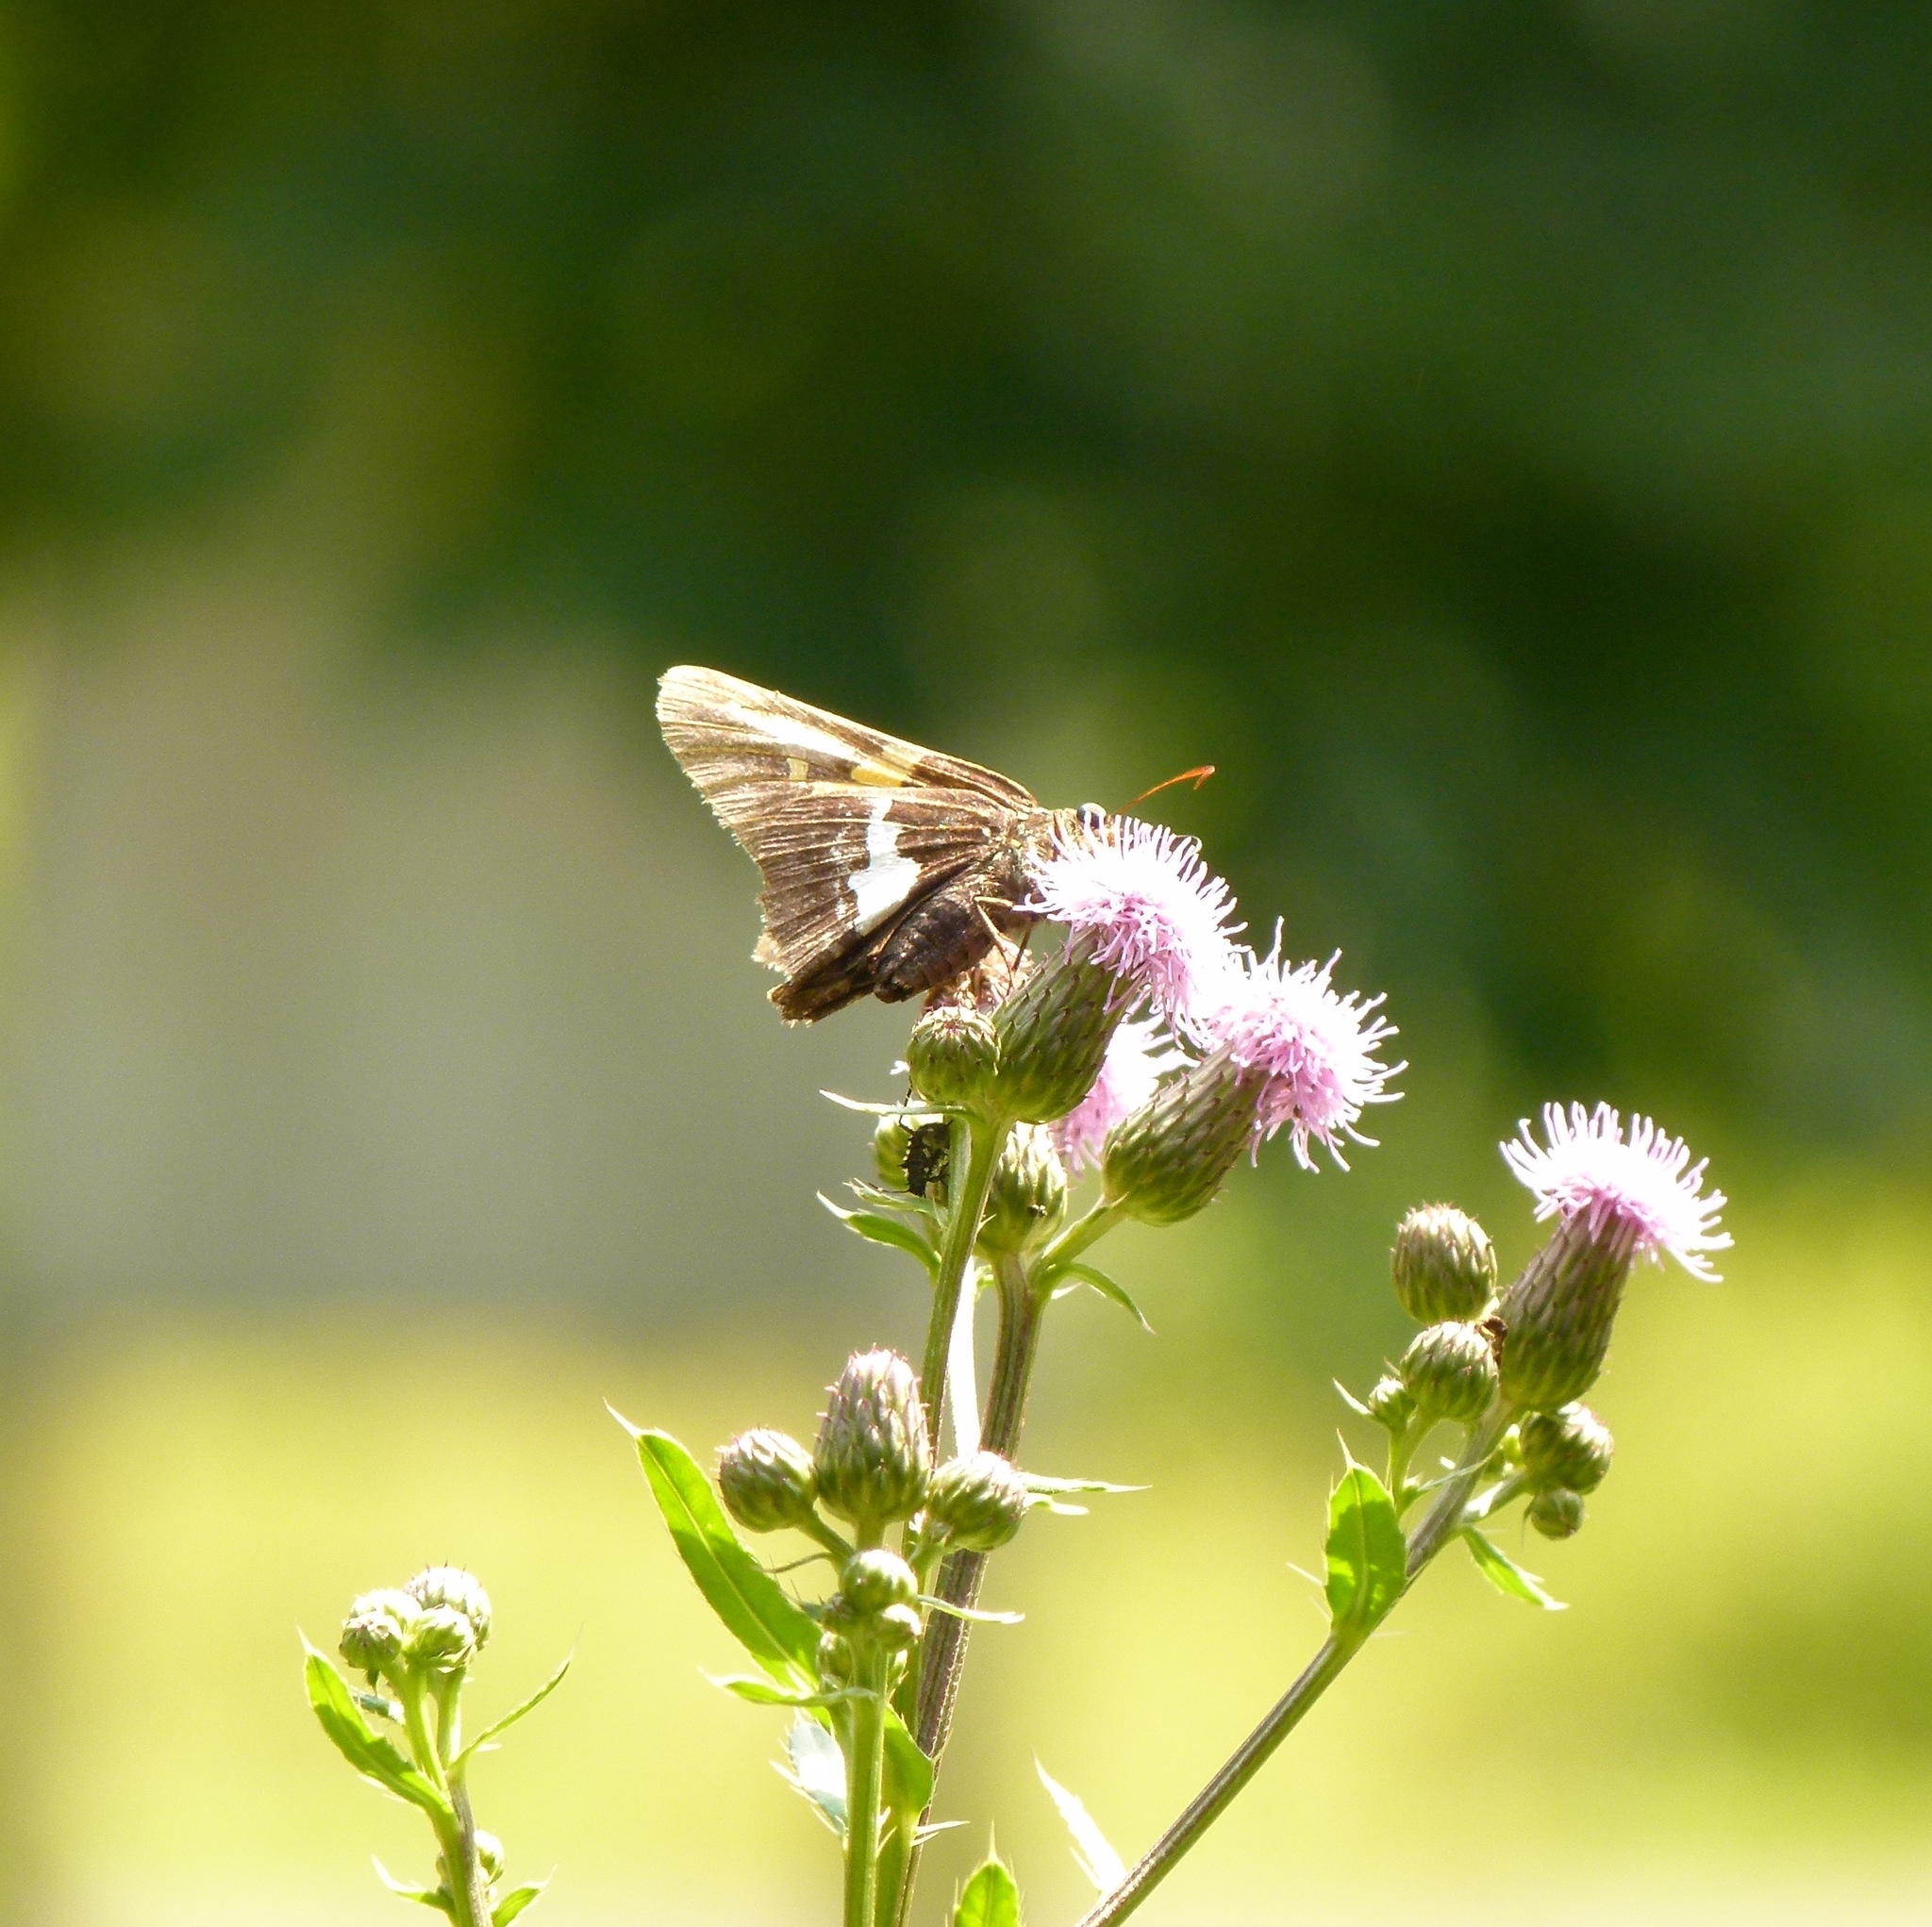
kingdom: Animalia
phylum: Arthropoda
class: Insecta
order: Lepidoptera
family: Hesperiidae
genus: Epargyreus
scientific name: Epargyreus clarus
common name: Silver-spotted skipper
